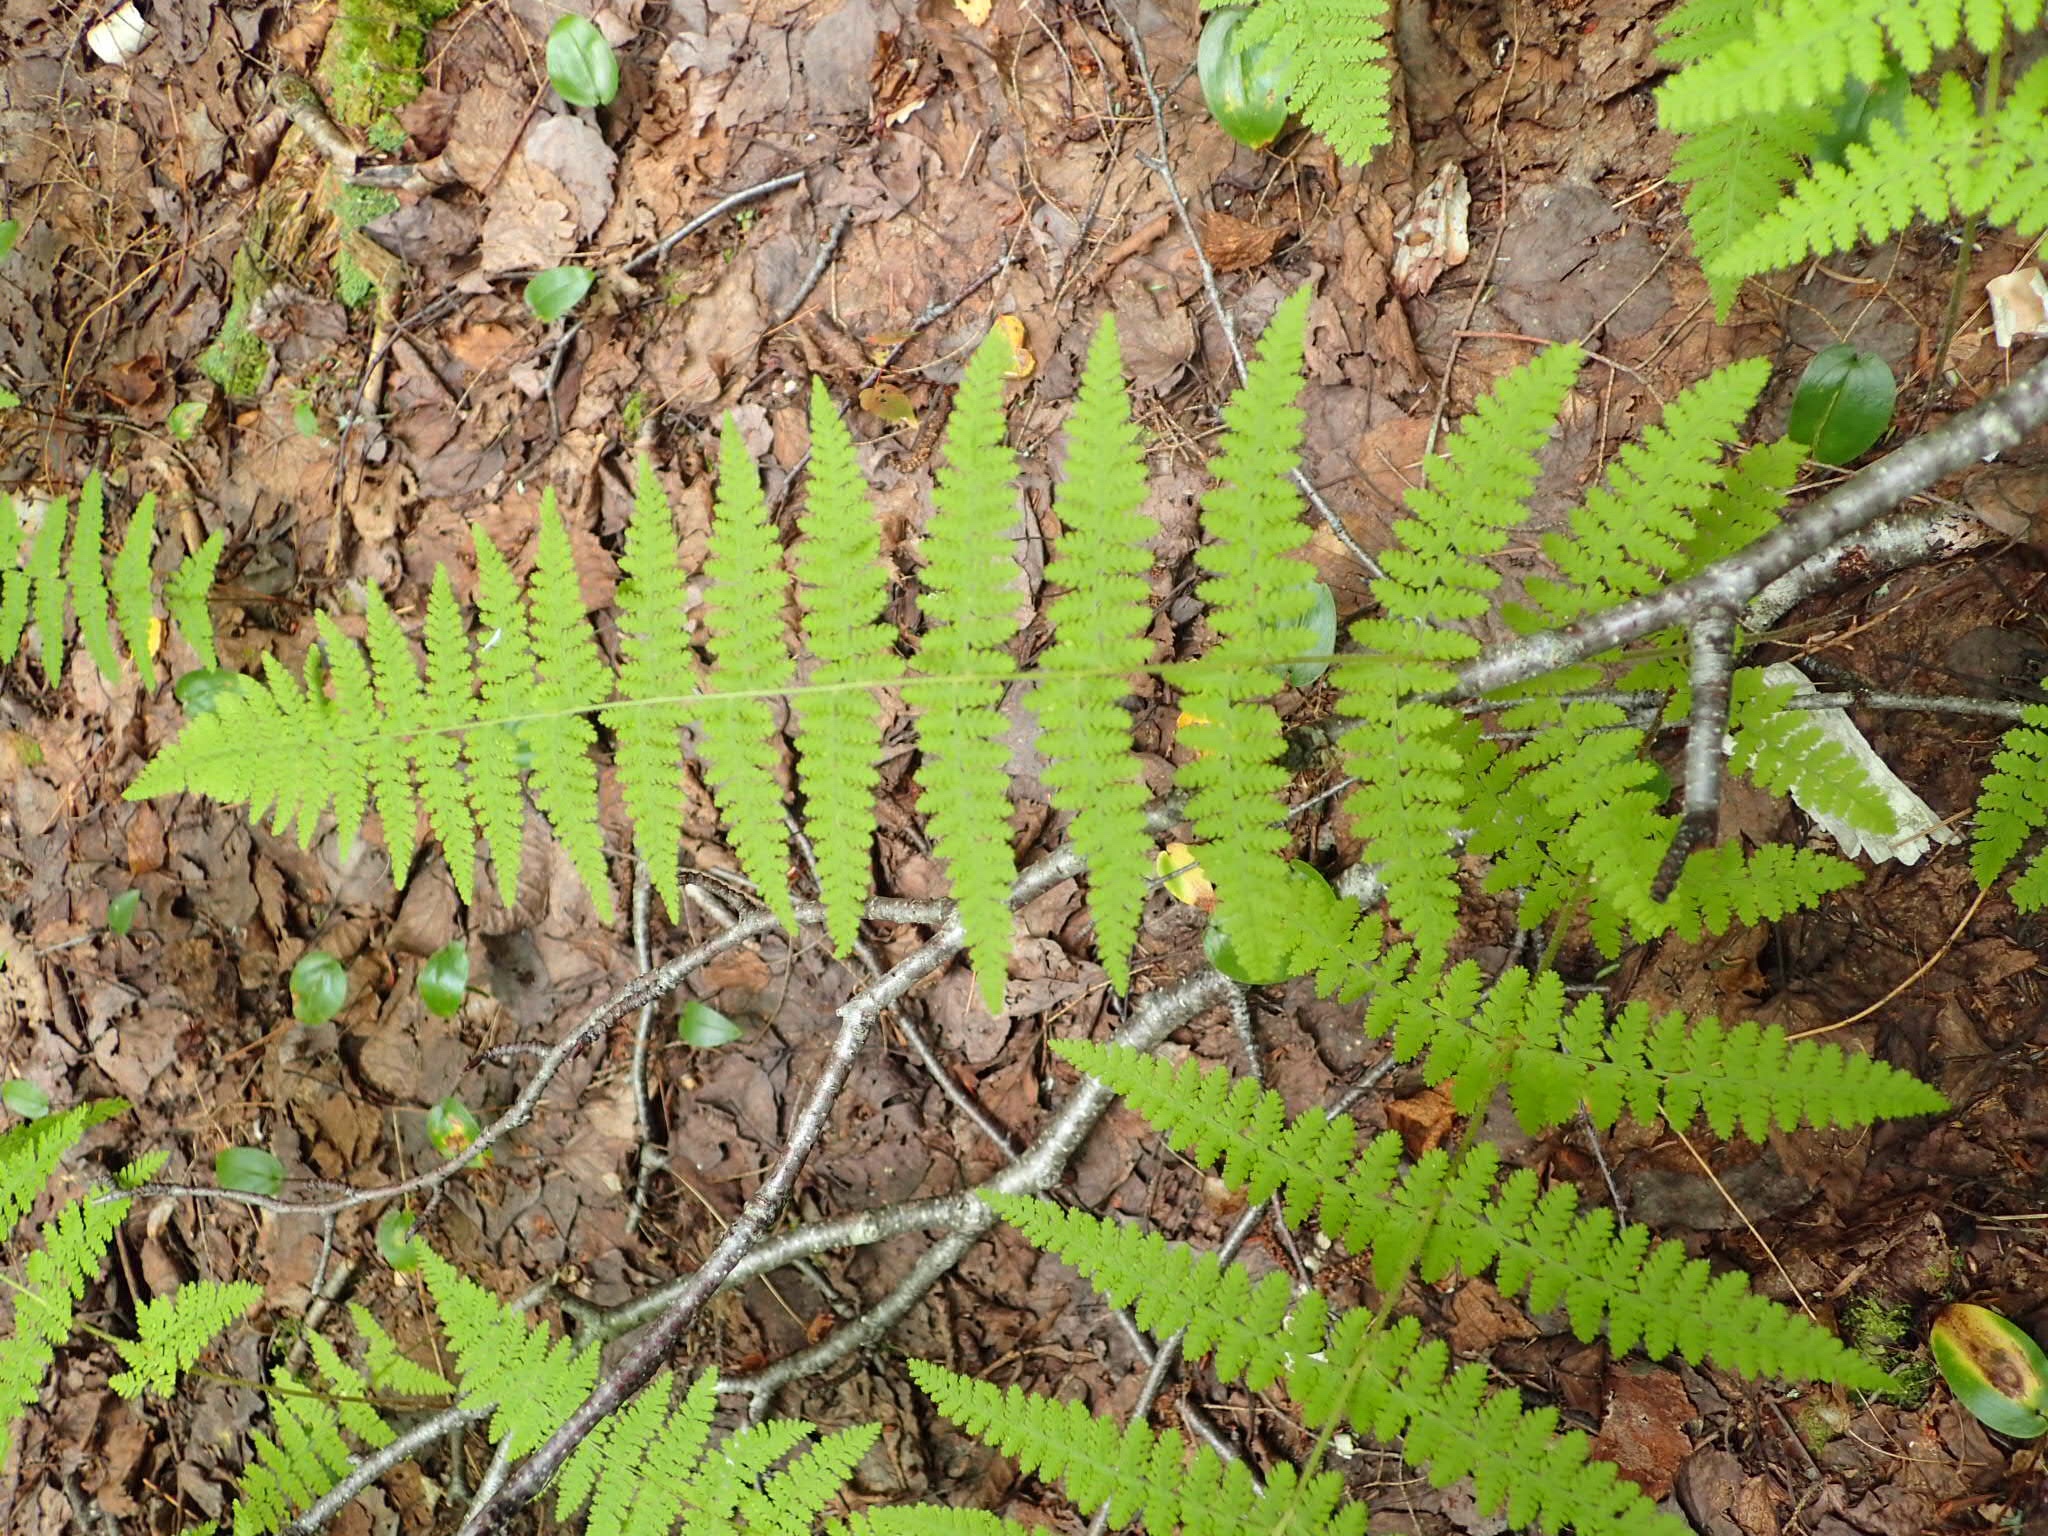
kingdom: Plantae
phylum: Tracheophyta
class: Polypodiopsida
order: Polypodiales
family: Dennstaedtiaceae
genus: Sitobolium
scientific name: Sitobolium punctilobum
